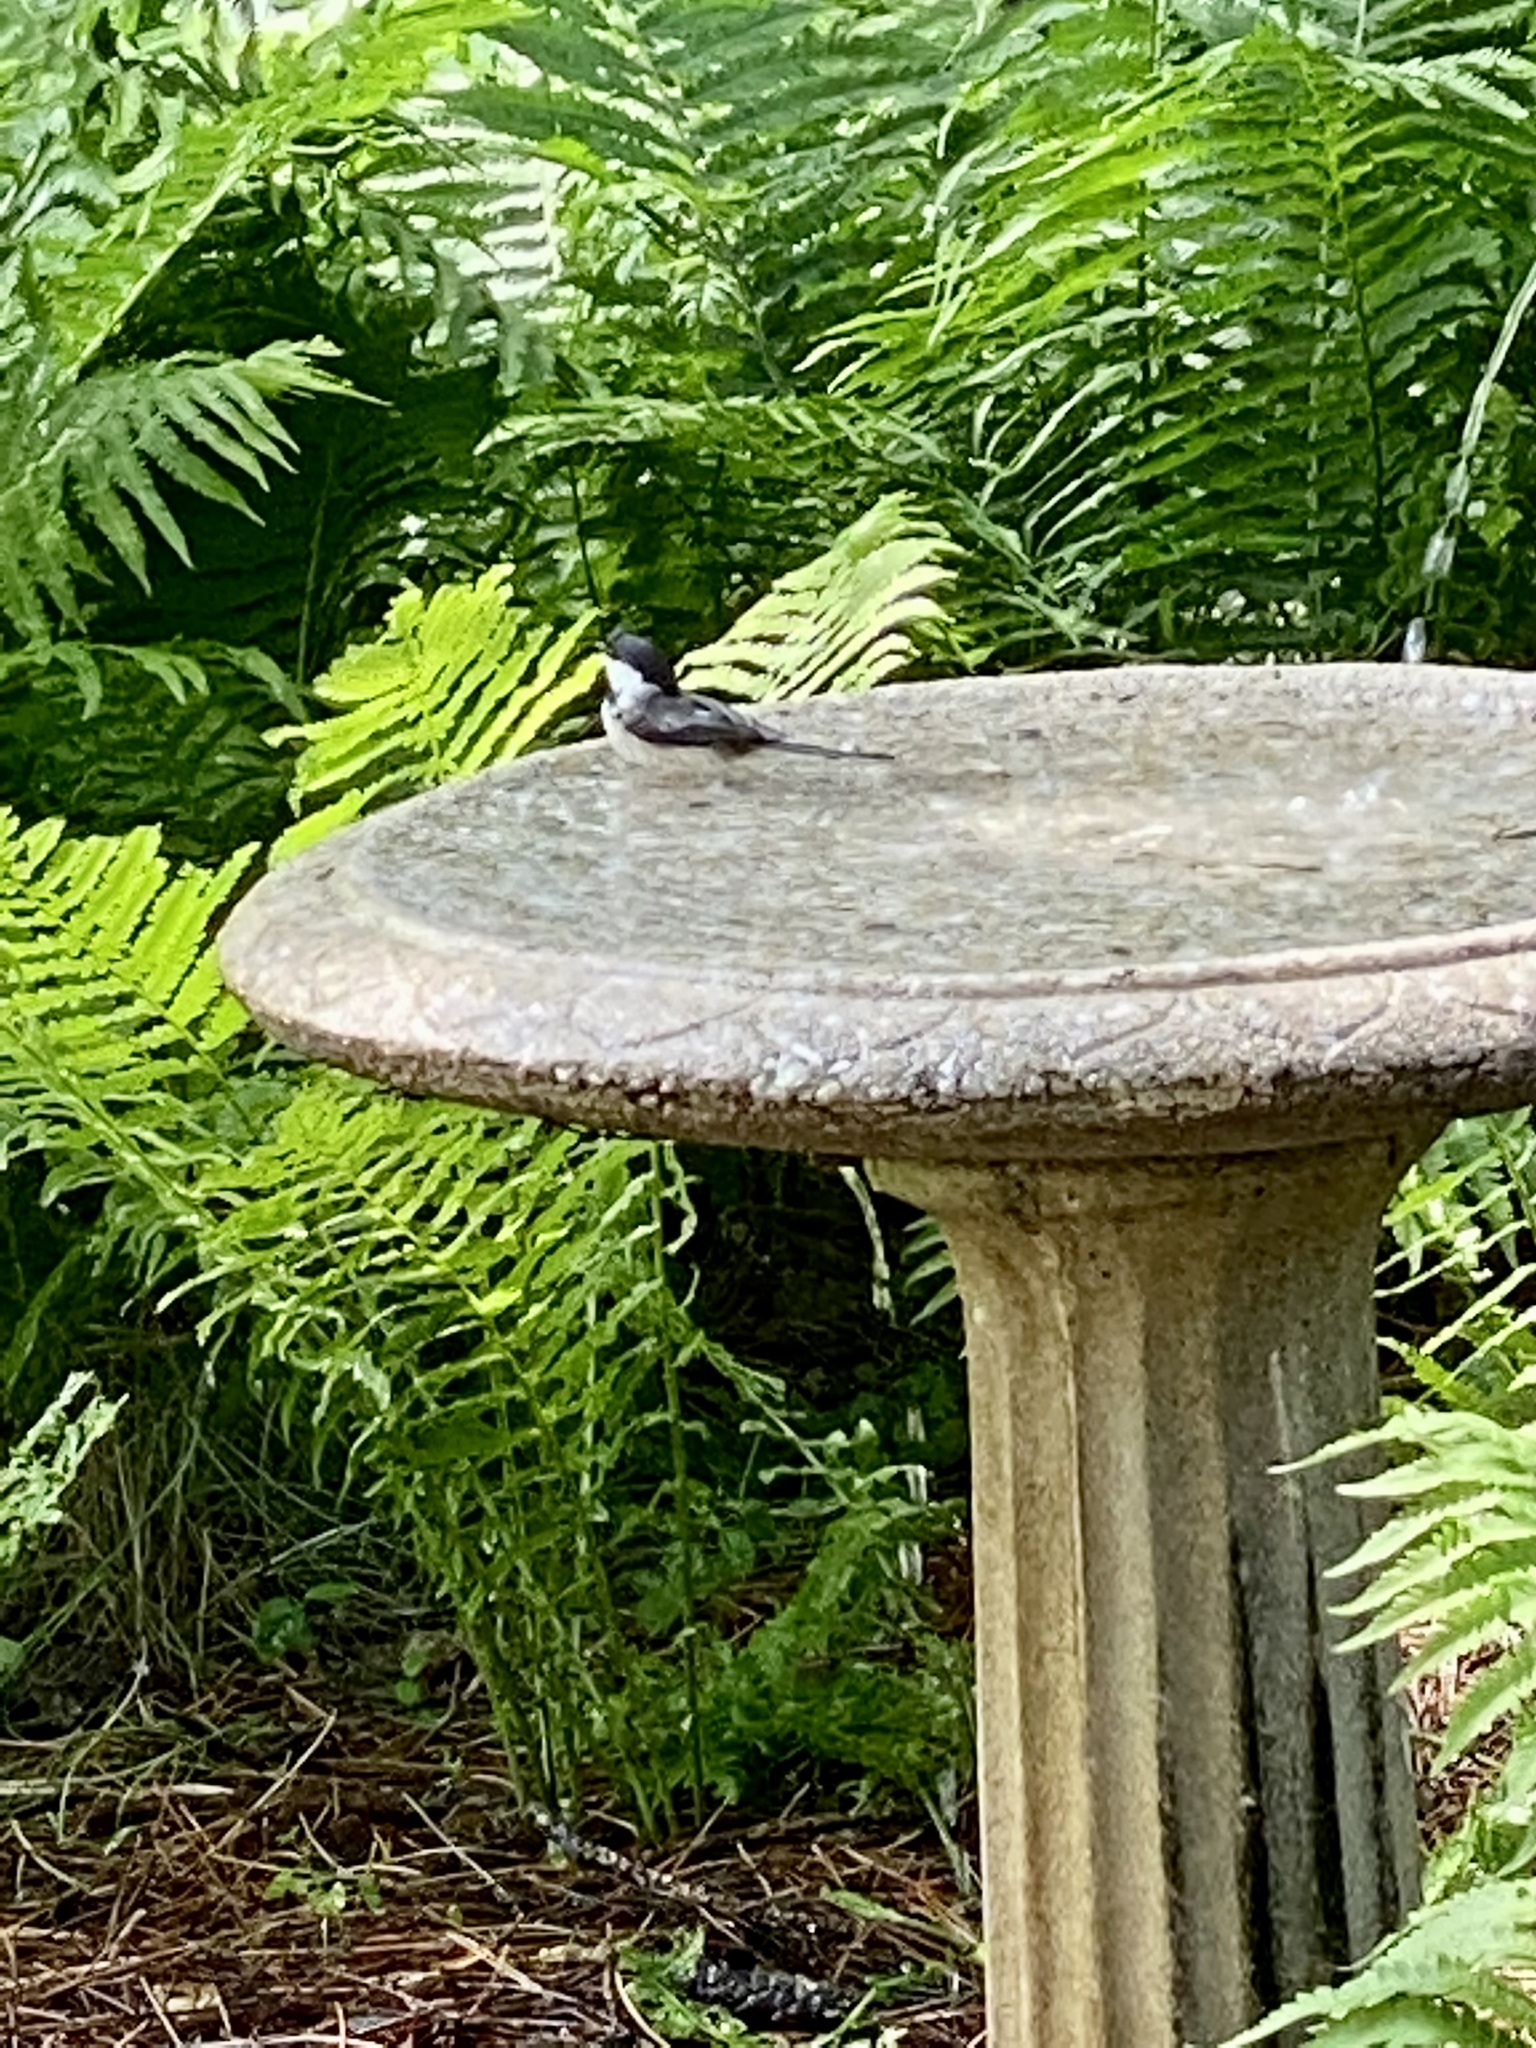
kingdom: Animalia
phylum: Chordata
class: Aves
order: Passeriformes
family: Paridae
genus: Poecile
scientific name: Poecile atricapillus
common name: Black-capped chickadee
